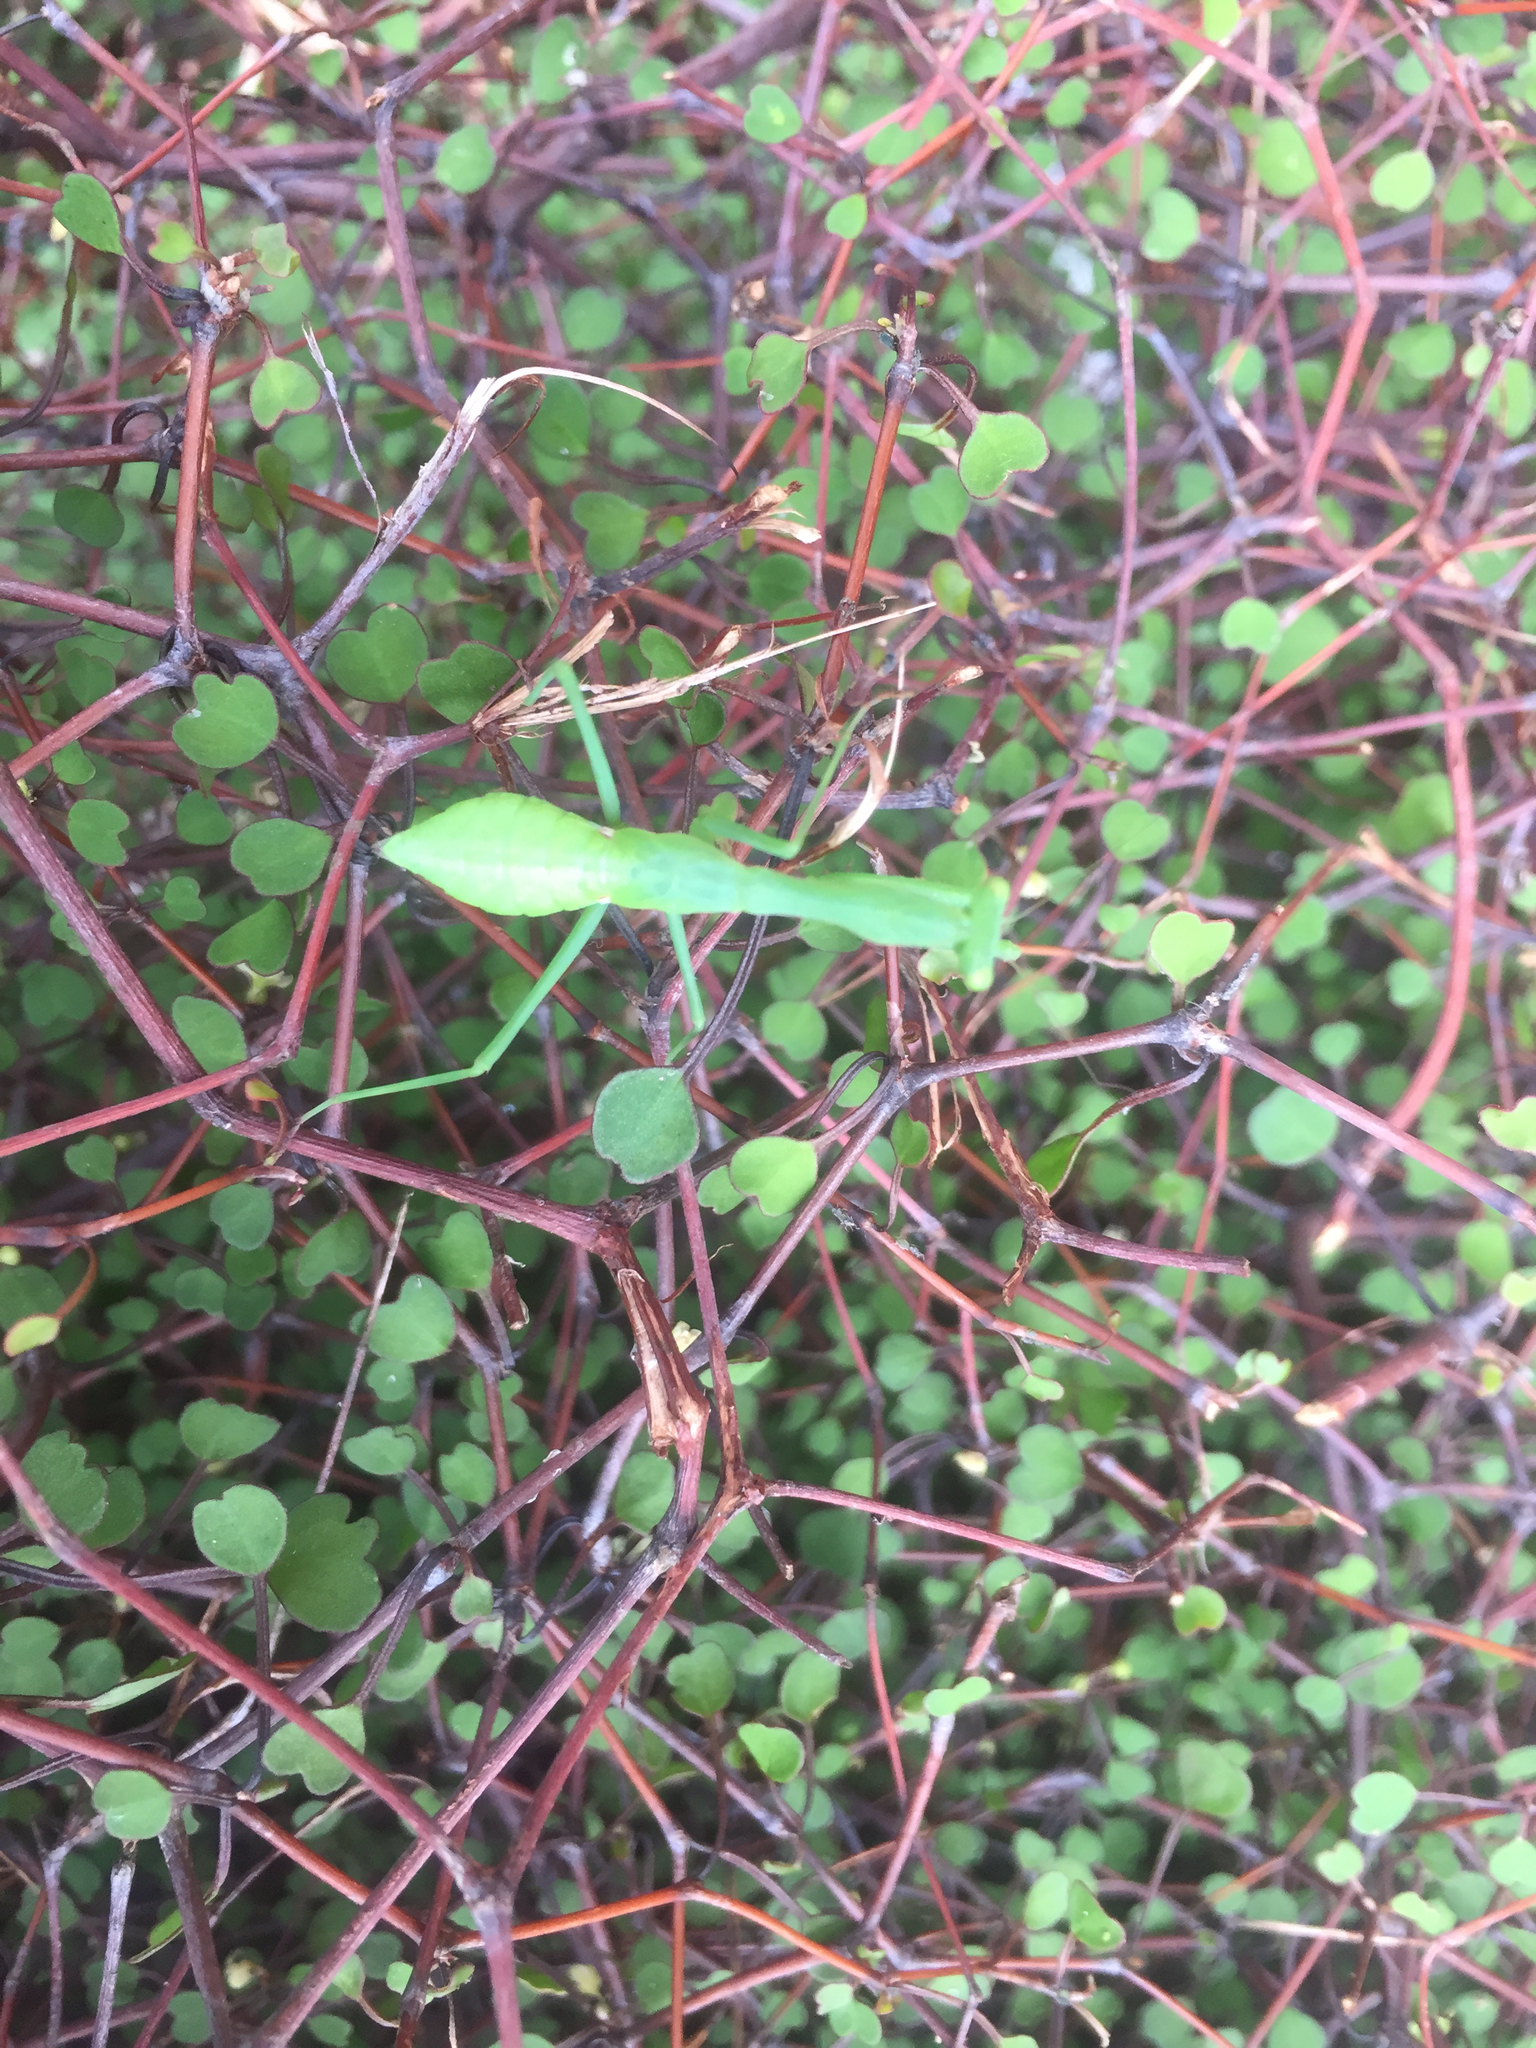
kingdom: Animalia
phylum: Arthropoda
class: Insecta
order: Mantodea
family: Miomantidae
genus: Miomantis
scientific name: Miomantis caffra
